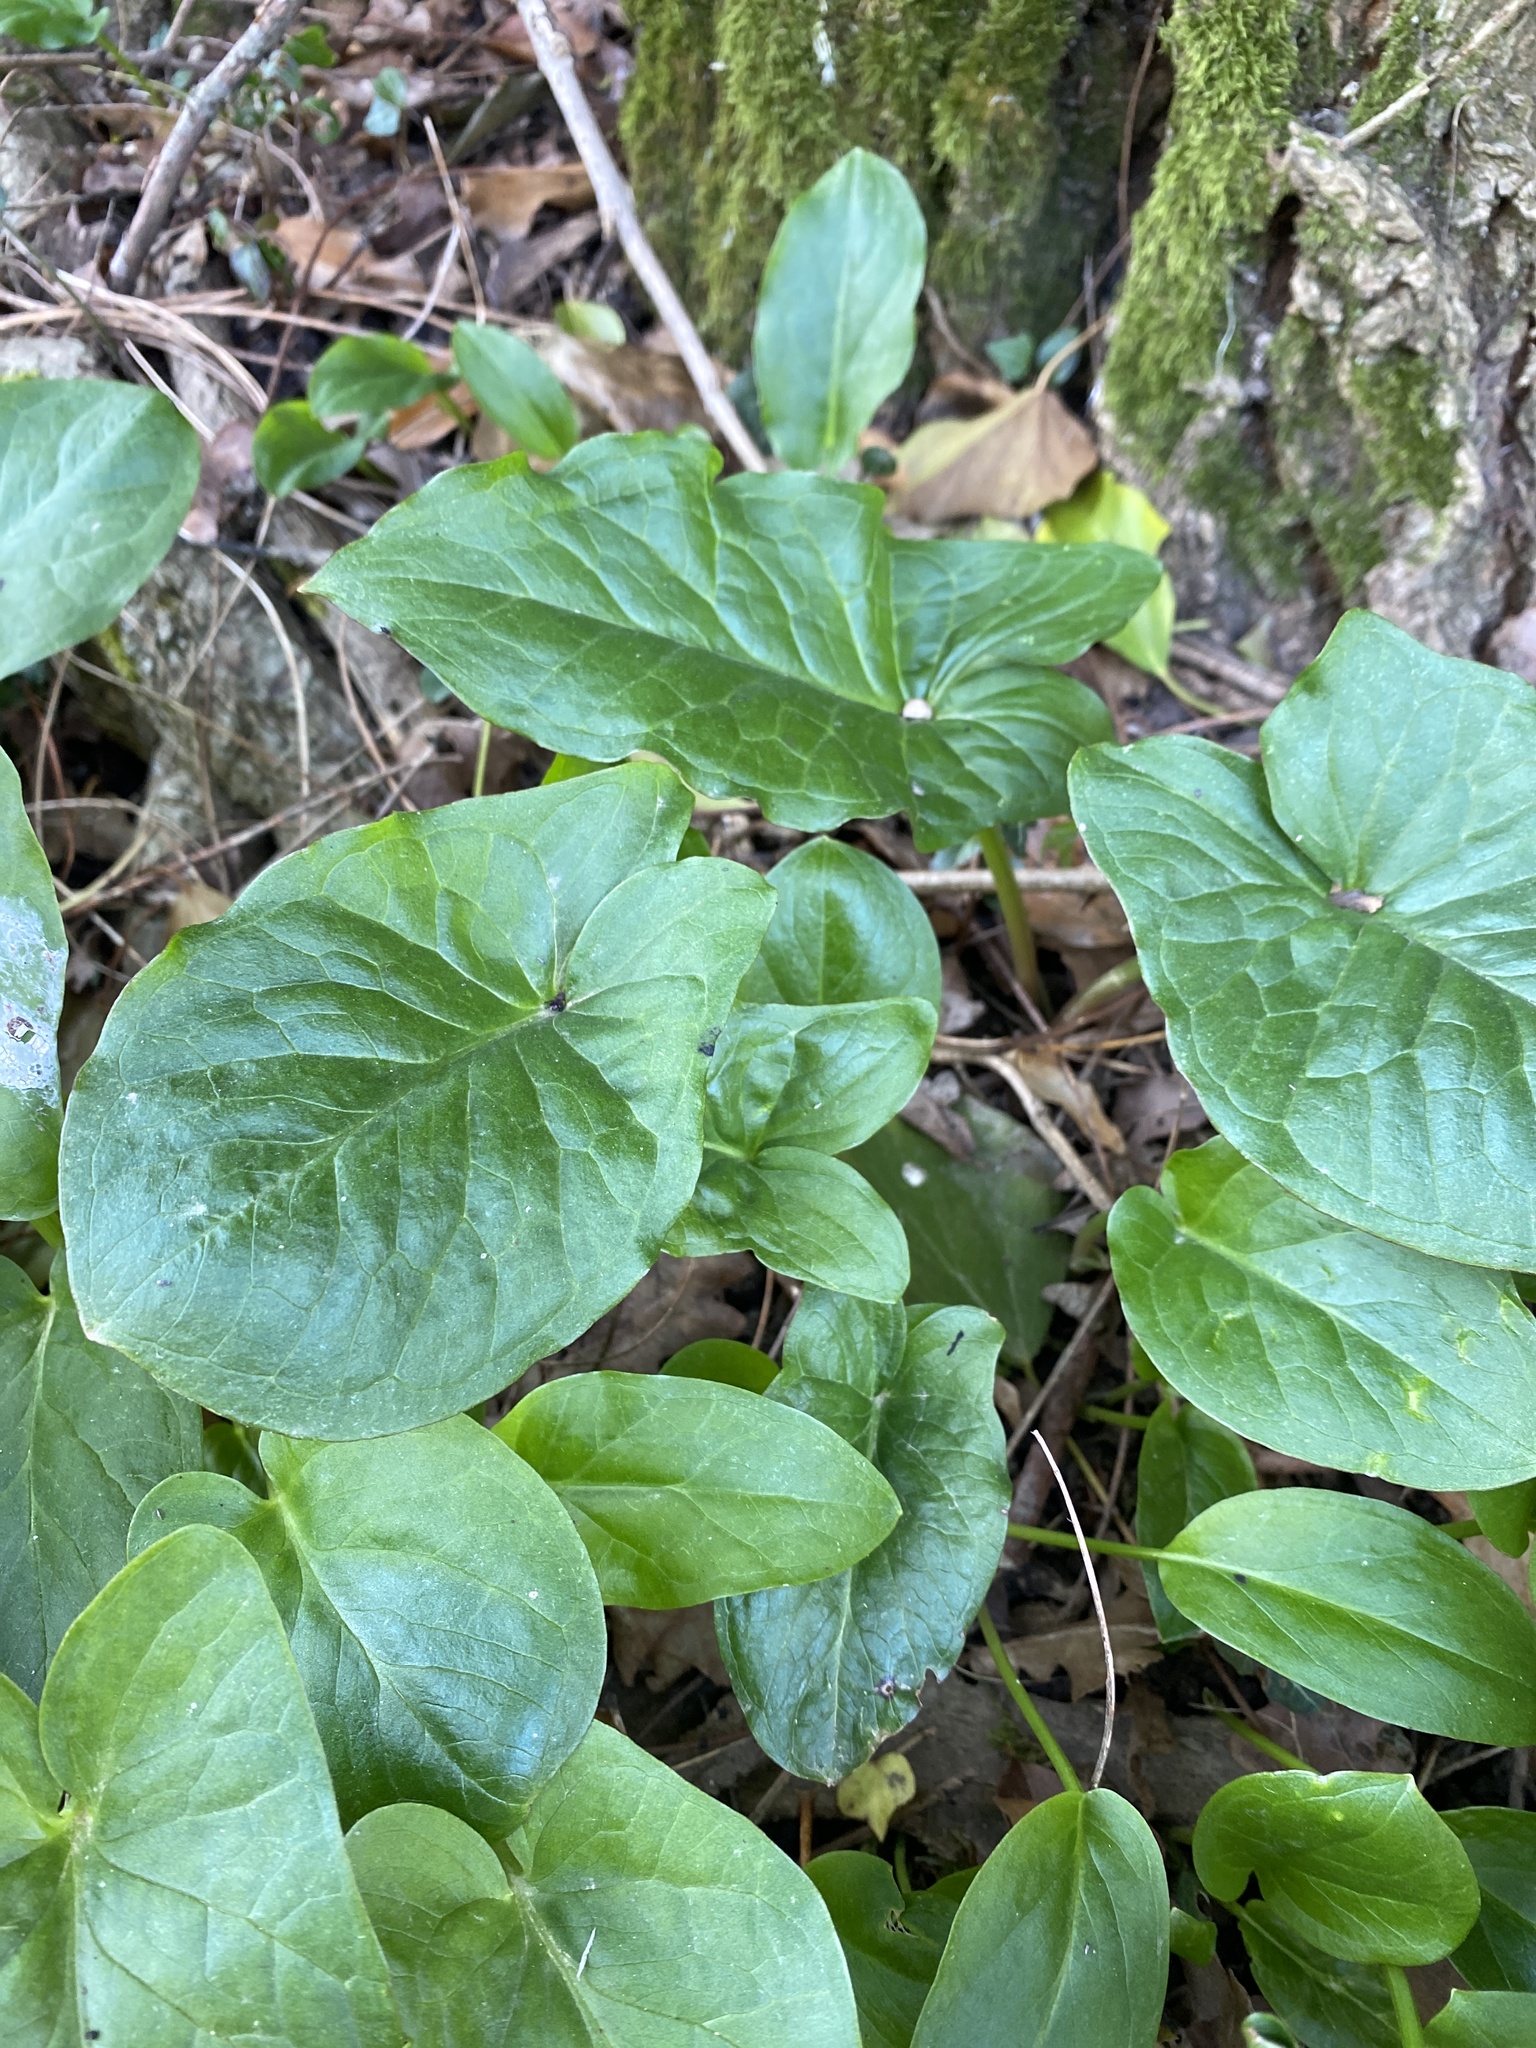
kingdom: Plantae
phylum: Tracheophyta
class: Liliopsida
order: Alismatales
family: Araceae
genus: Arum
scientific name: Arum maculatum
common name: Lords-and-ladies
